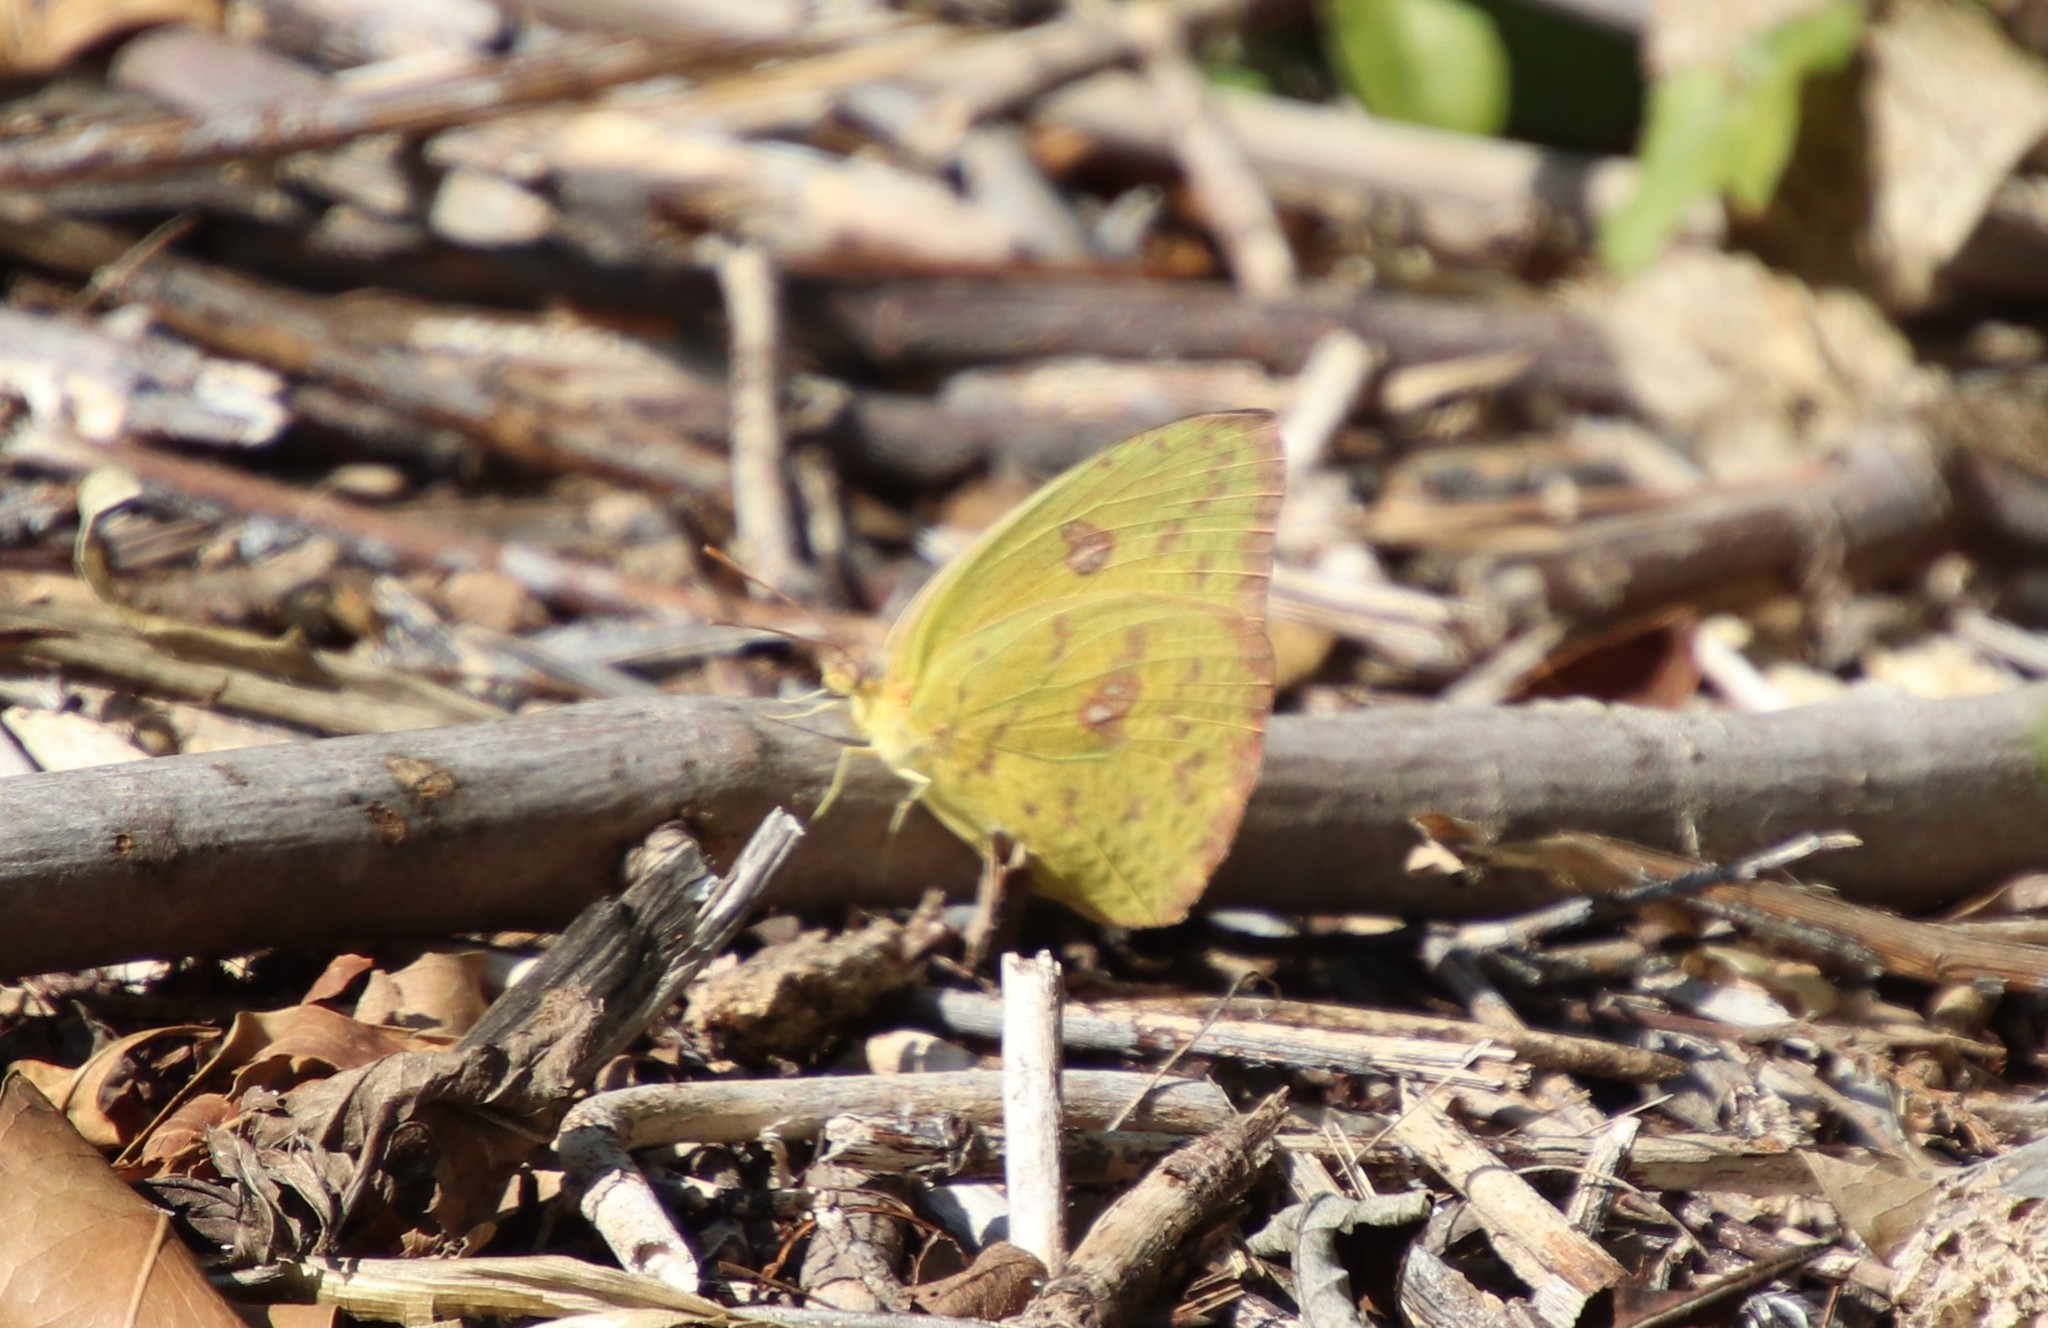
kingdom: Animalia
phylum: Arthropoda
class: Insecta
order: Lepidoptera
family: Pieridae
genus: Phoebis
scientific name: Phoebis sennae
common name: Cloudless sulphur
